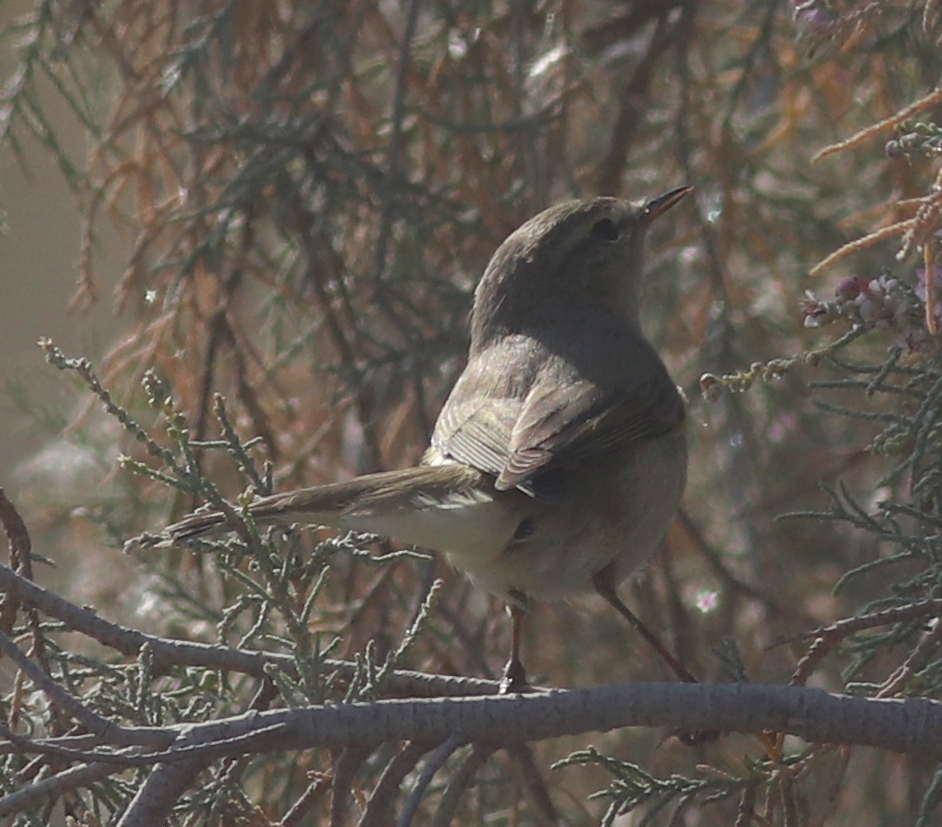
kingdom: Animalia
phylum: Chordata
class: Aves
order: Passeriformes
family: Phylloscopidae
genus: Phylloscopus
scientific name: Phylloscopus collybita
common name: Common chiffchaff
